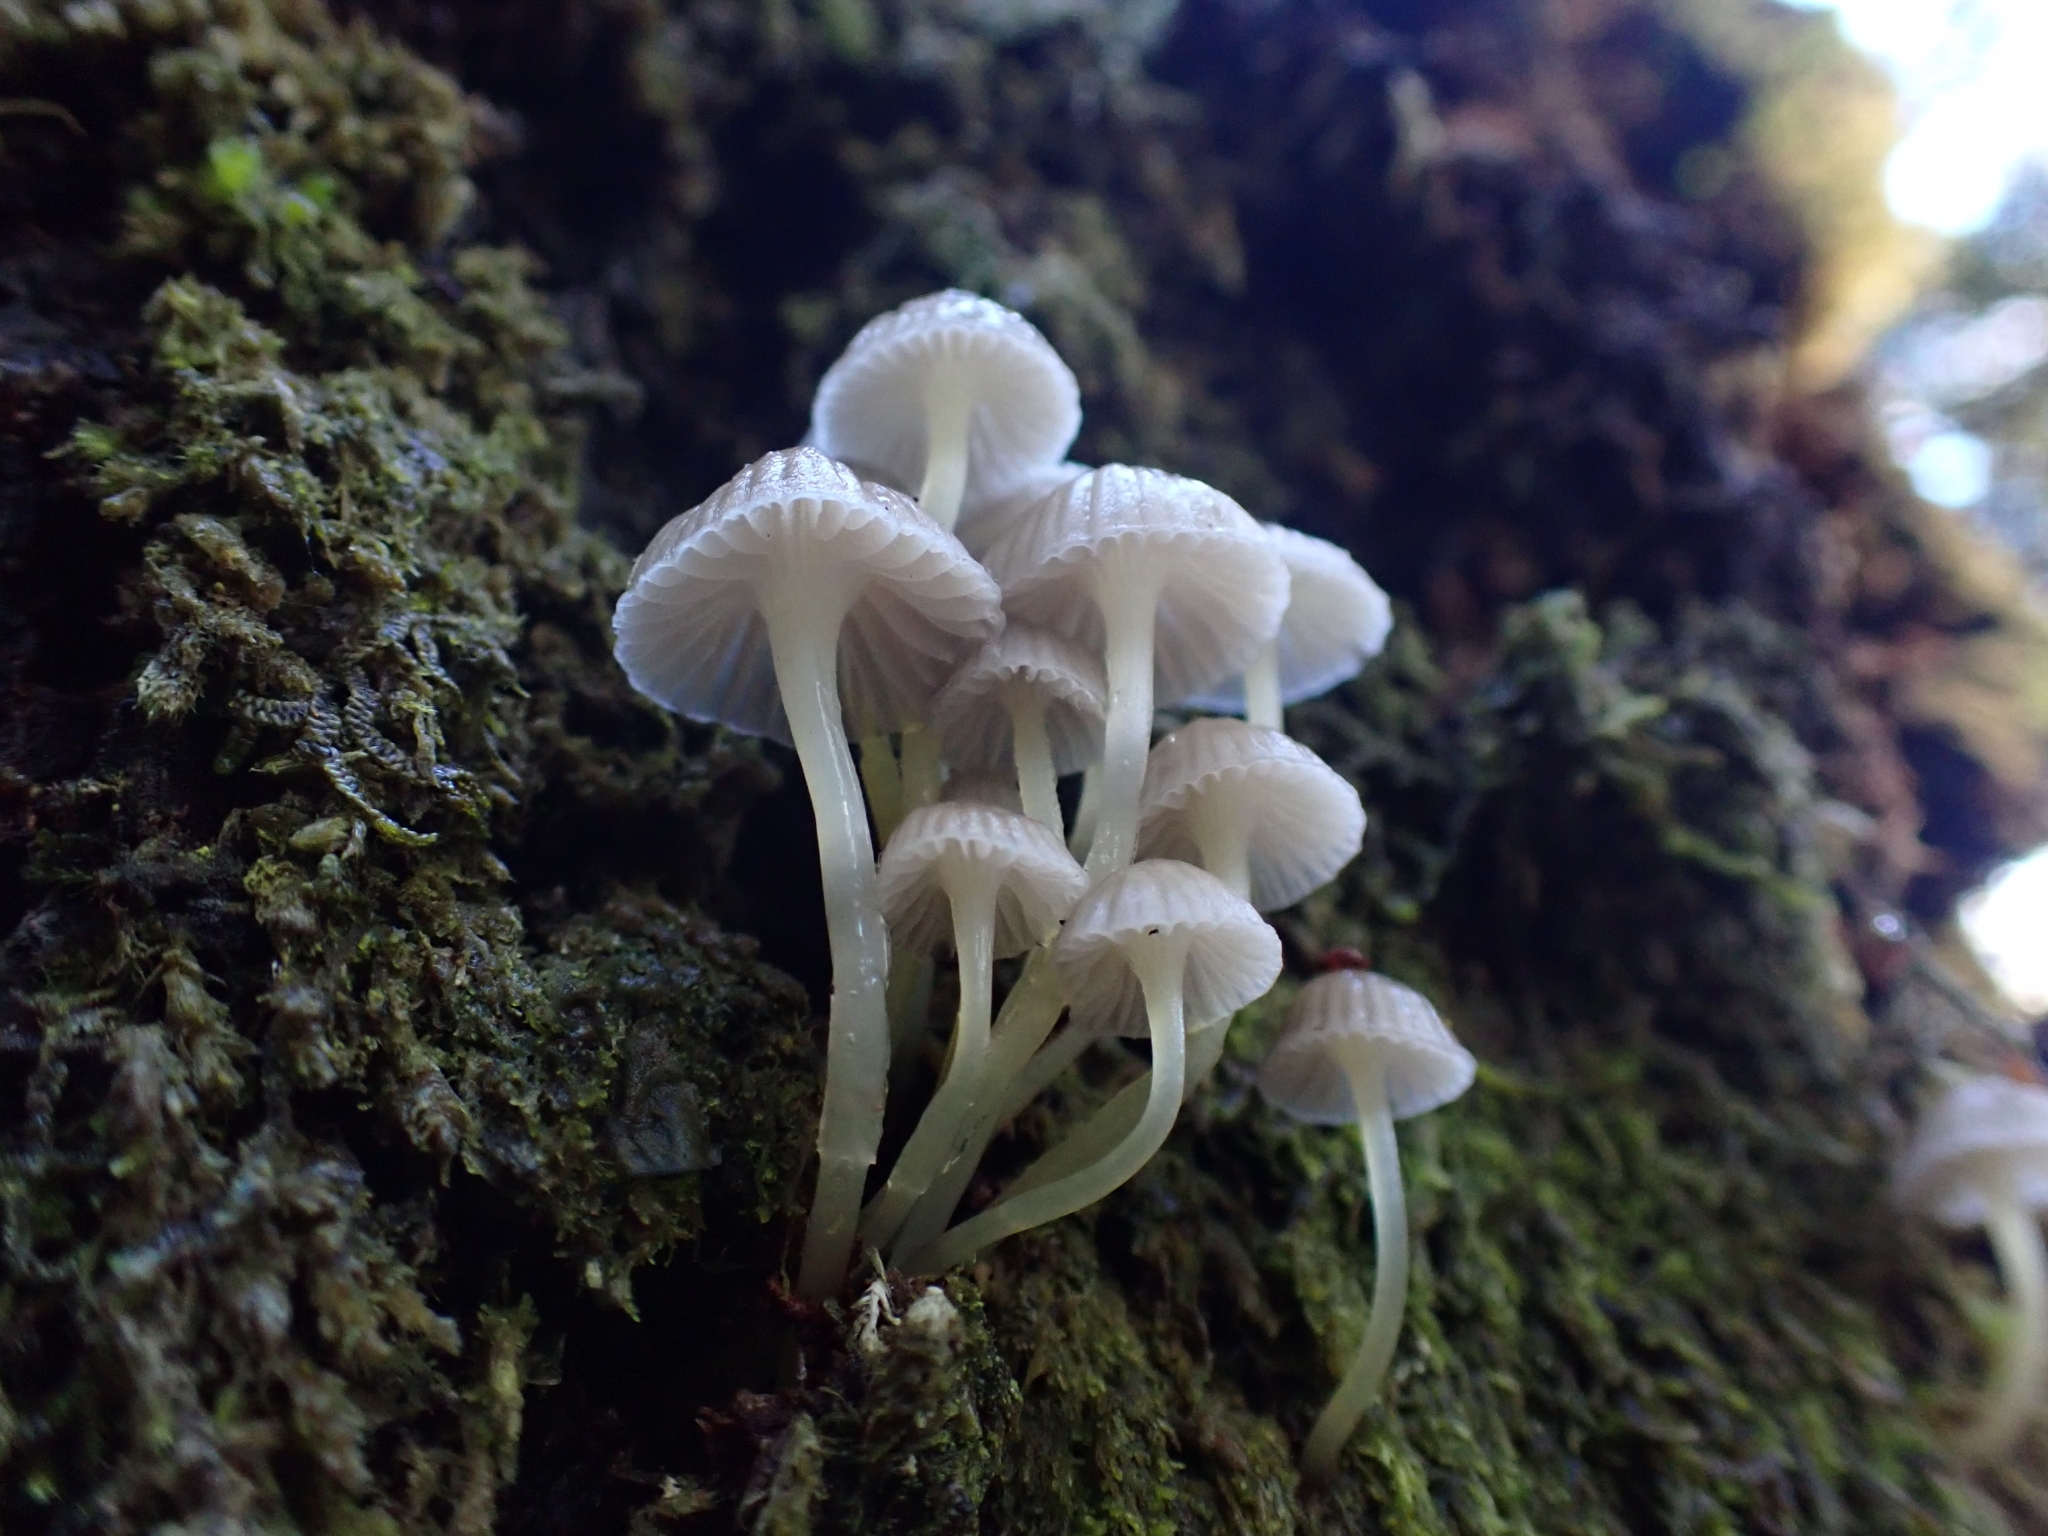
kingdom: Fungi
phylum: Basidiomycota
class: Agaricomycetes
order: Agaricales
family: Mycenaceae
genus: Roridomyces
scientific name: Roridomyces austrororidus
